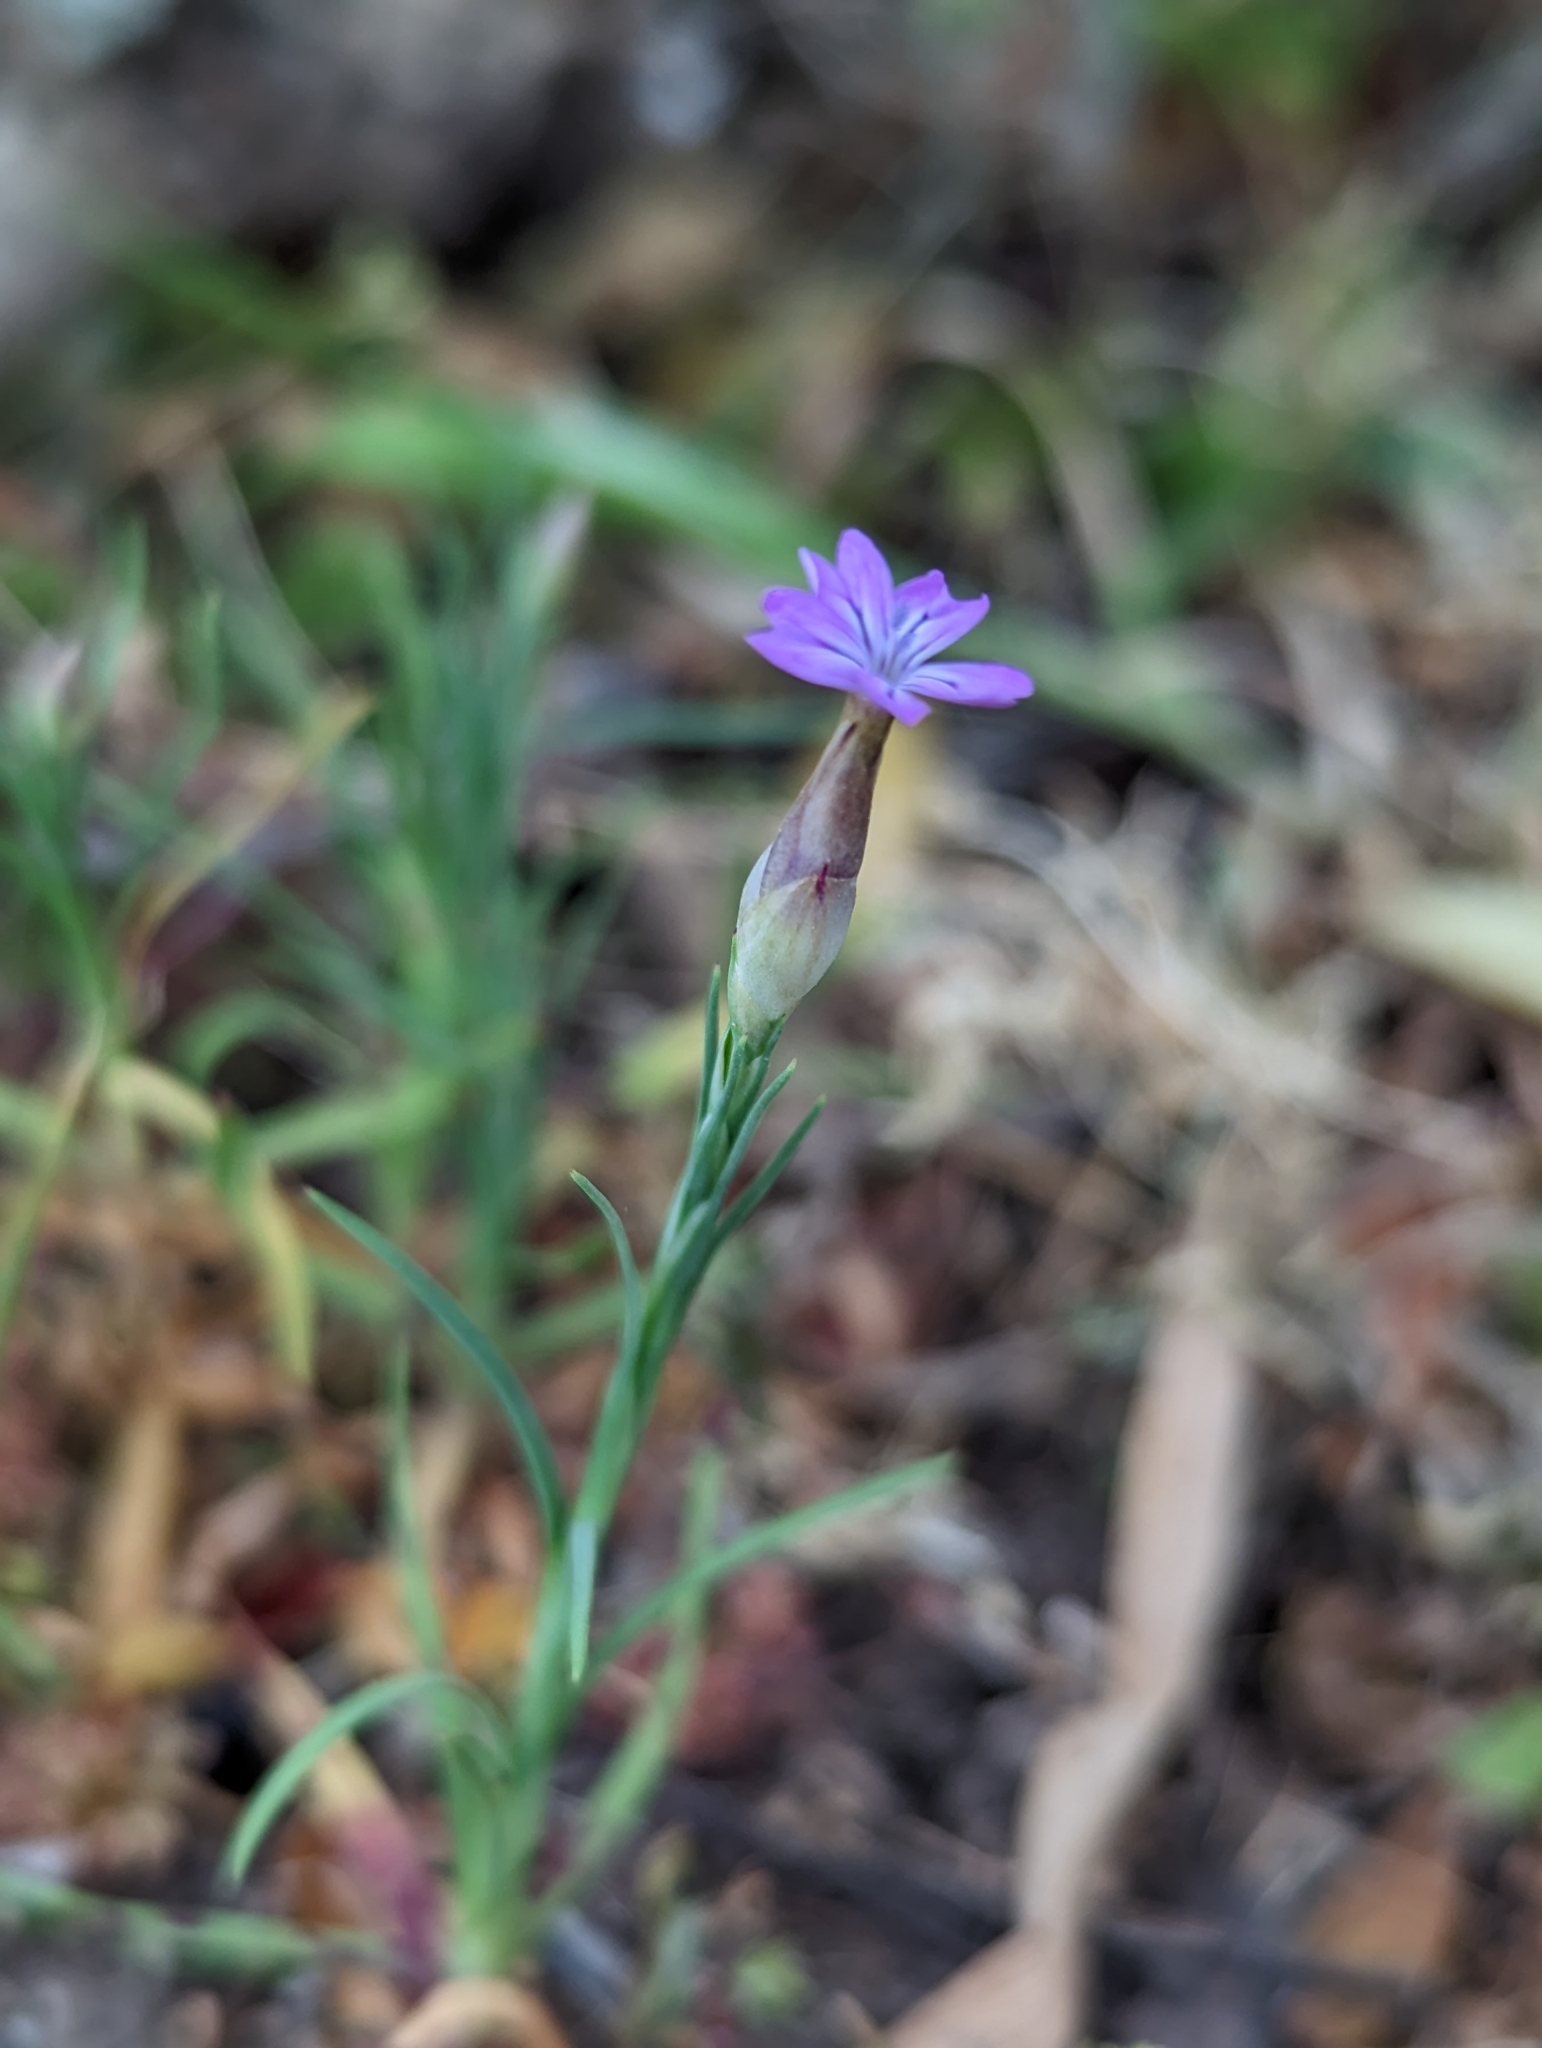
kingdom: Plantae
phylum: Tracheophyta
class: Magnoliopsida
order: Caryophyllales
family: Caryophyllaceae
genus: Petrorhagia
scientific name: Petrorhagia dubia
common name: Hairypink
